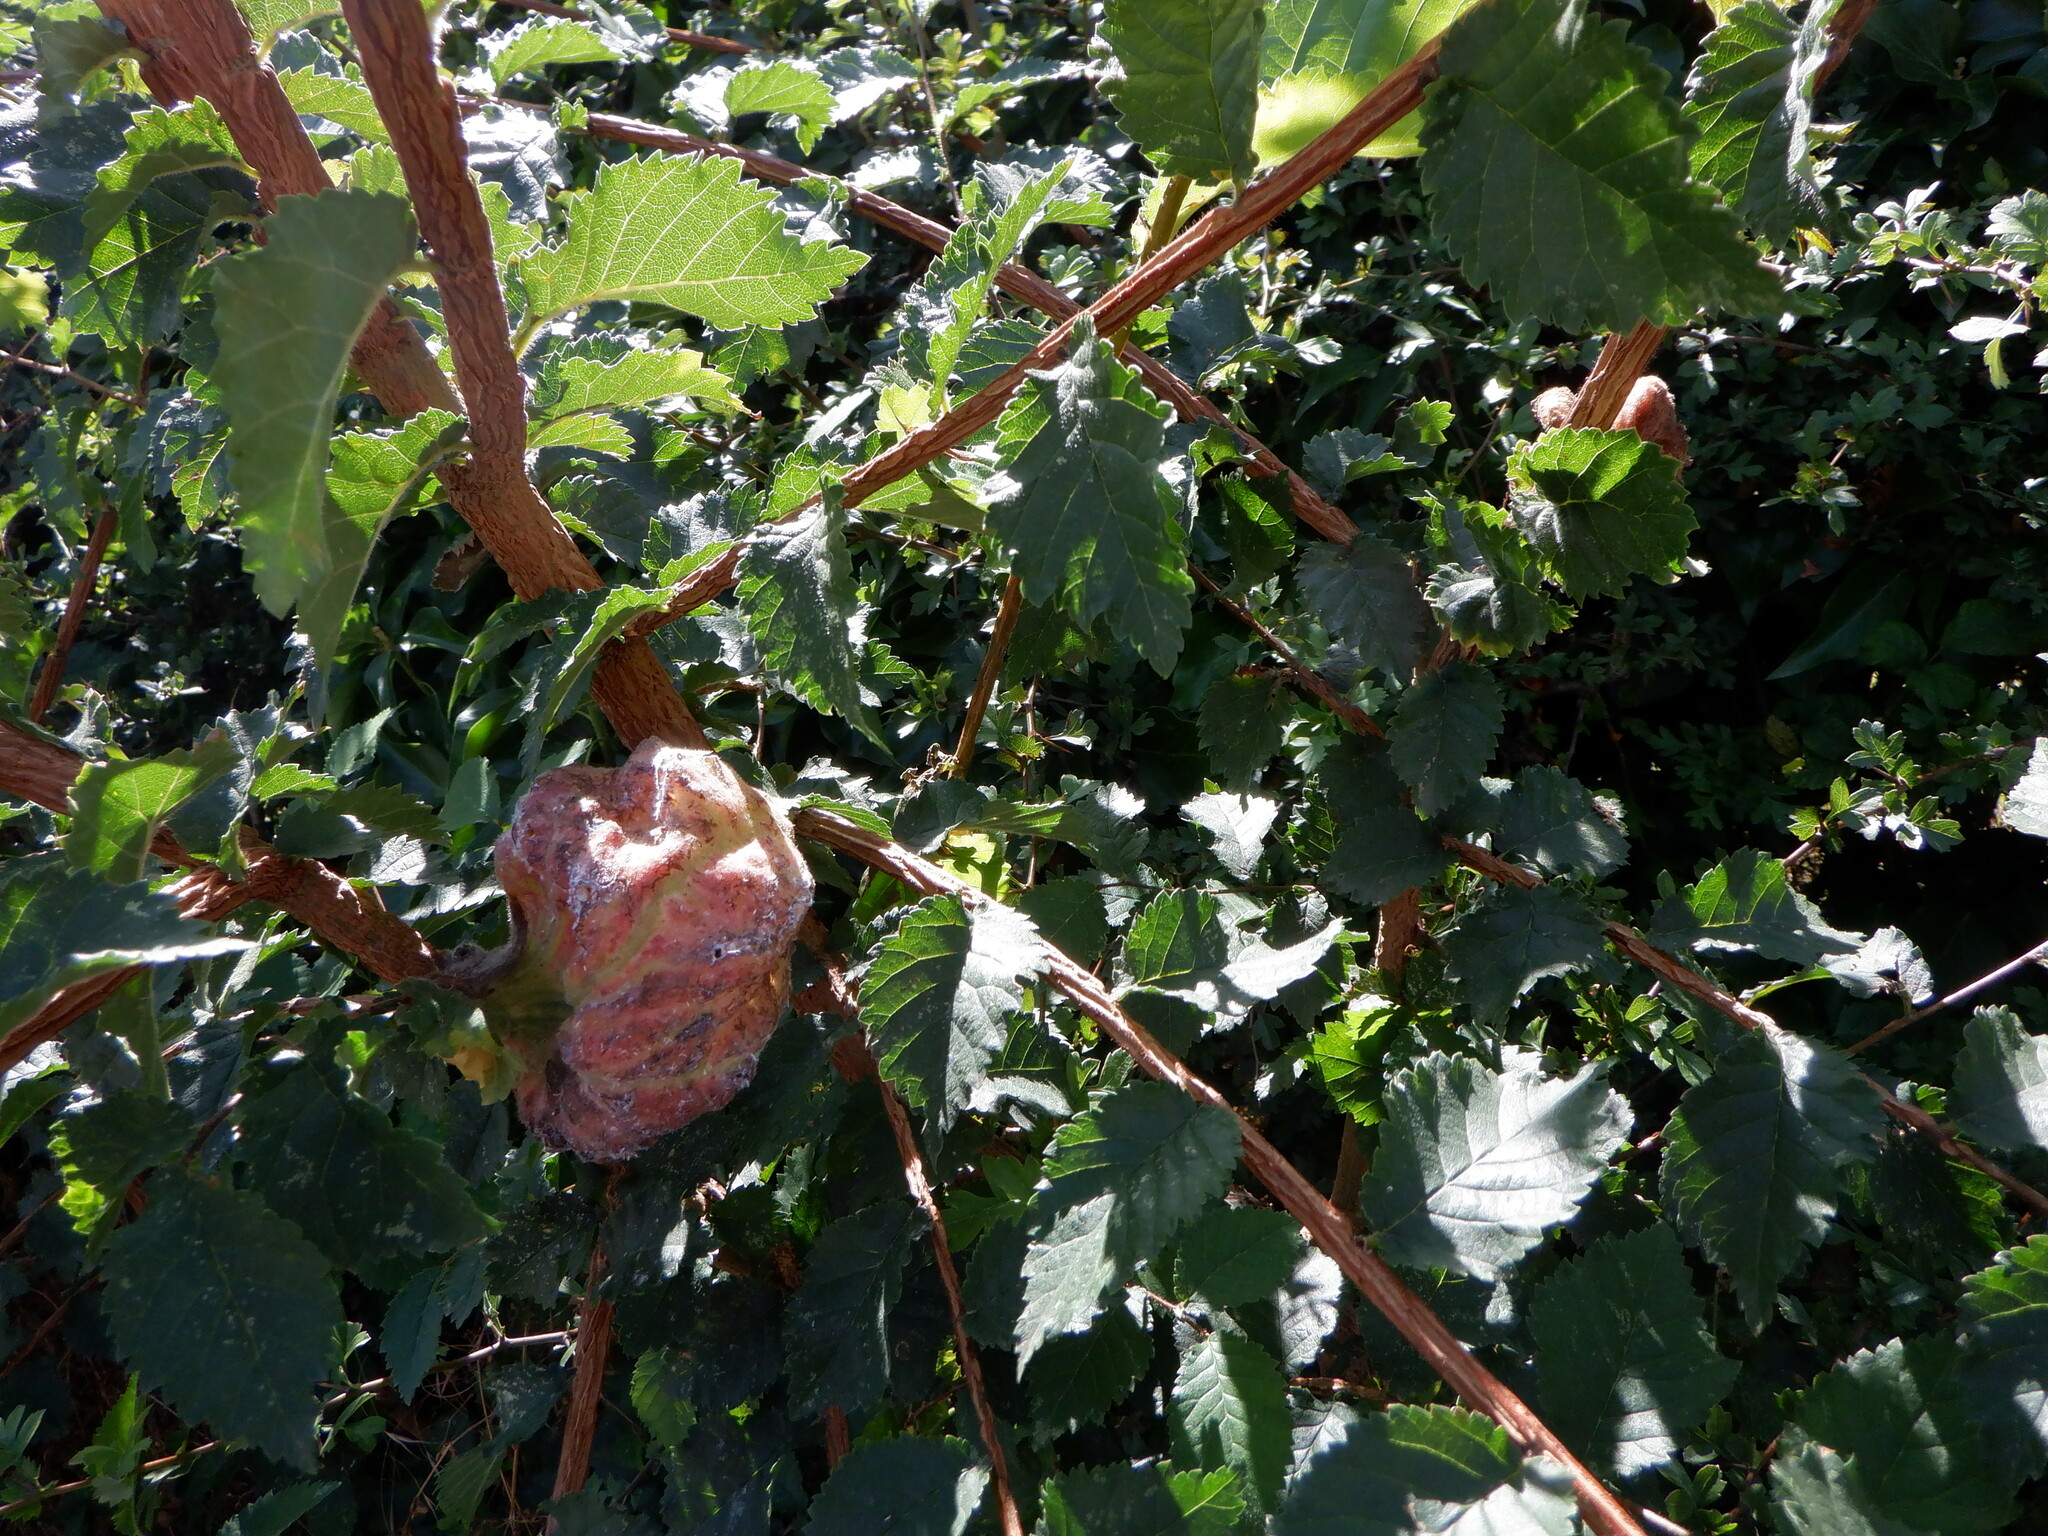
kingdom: Animalia
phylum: Arthropoda
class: Insecta
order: Hemiptera
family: Aphididae
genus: Eriosoma
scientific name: Eriosoma lanuginosum
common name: Aphid
